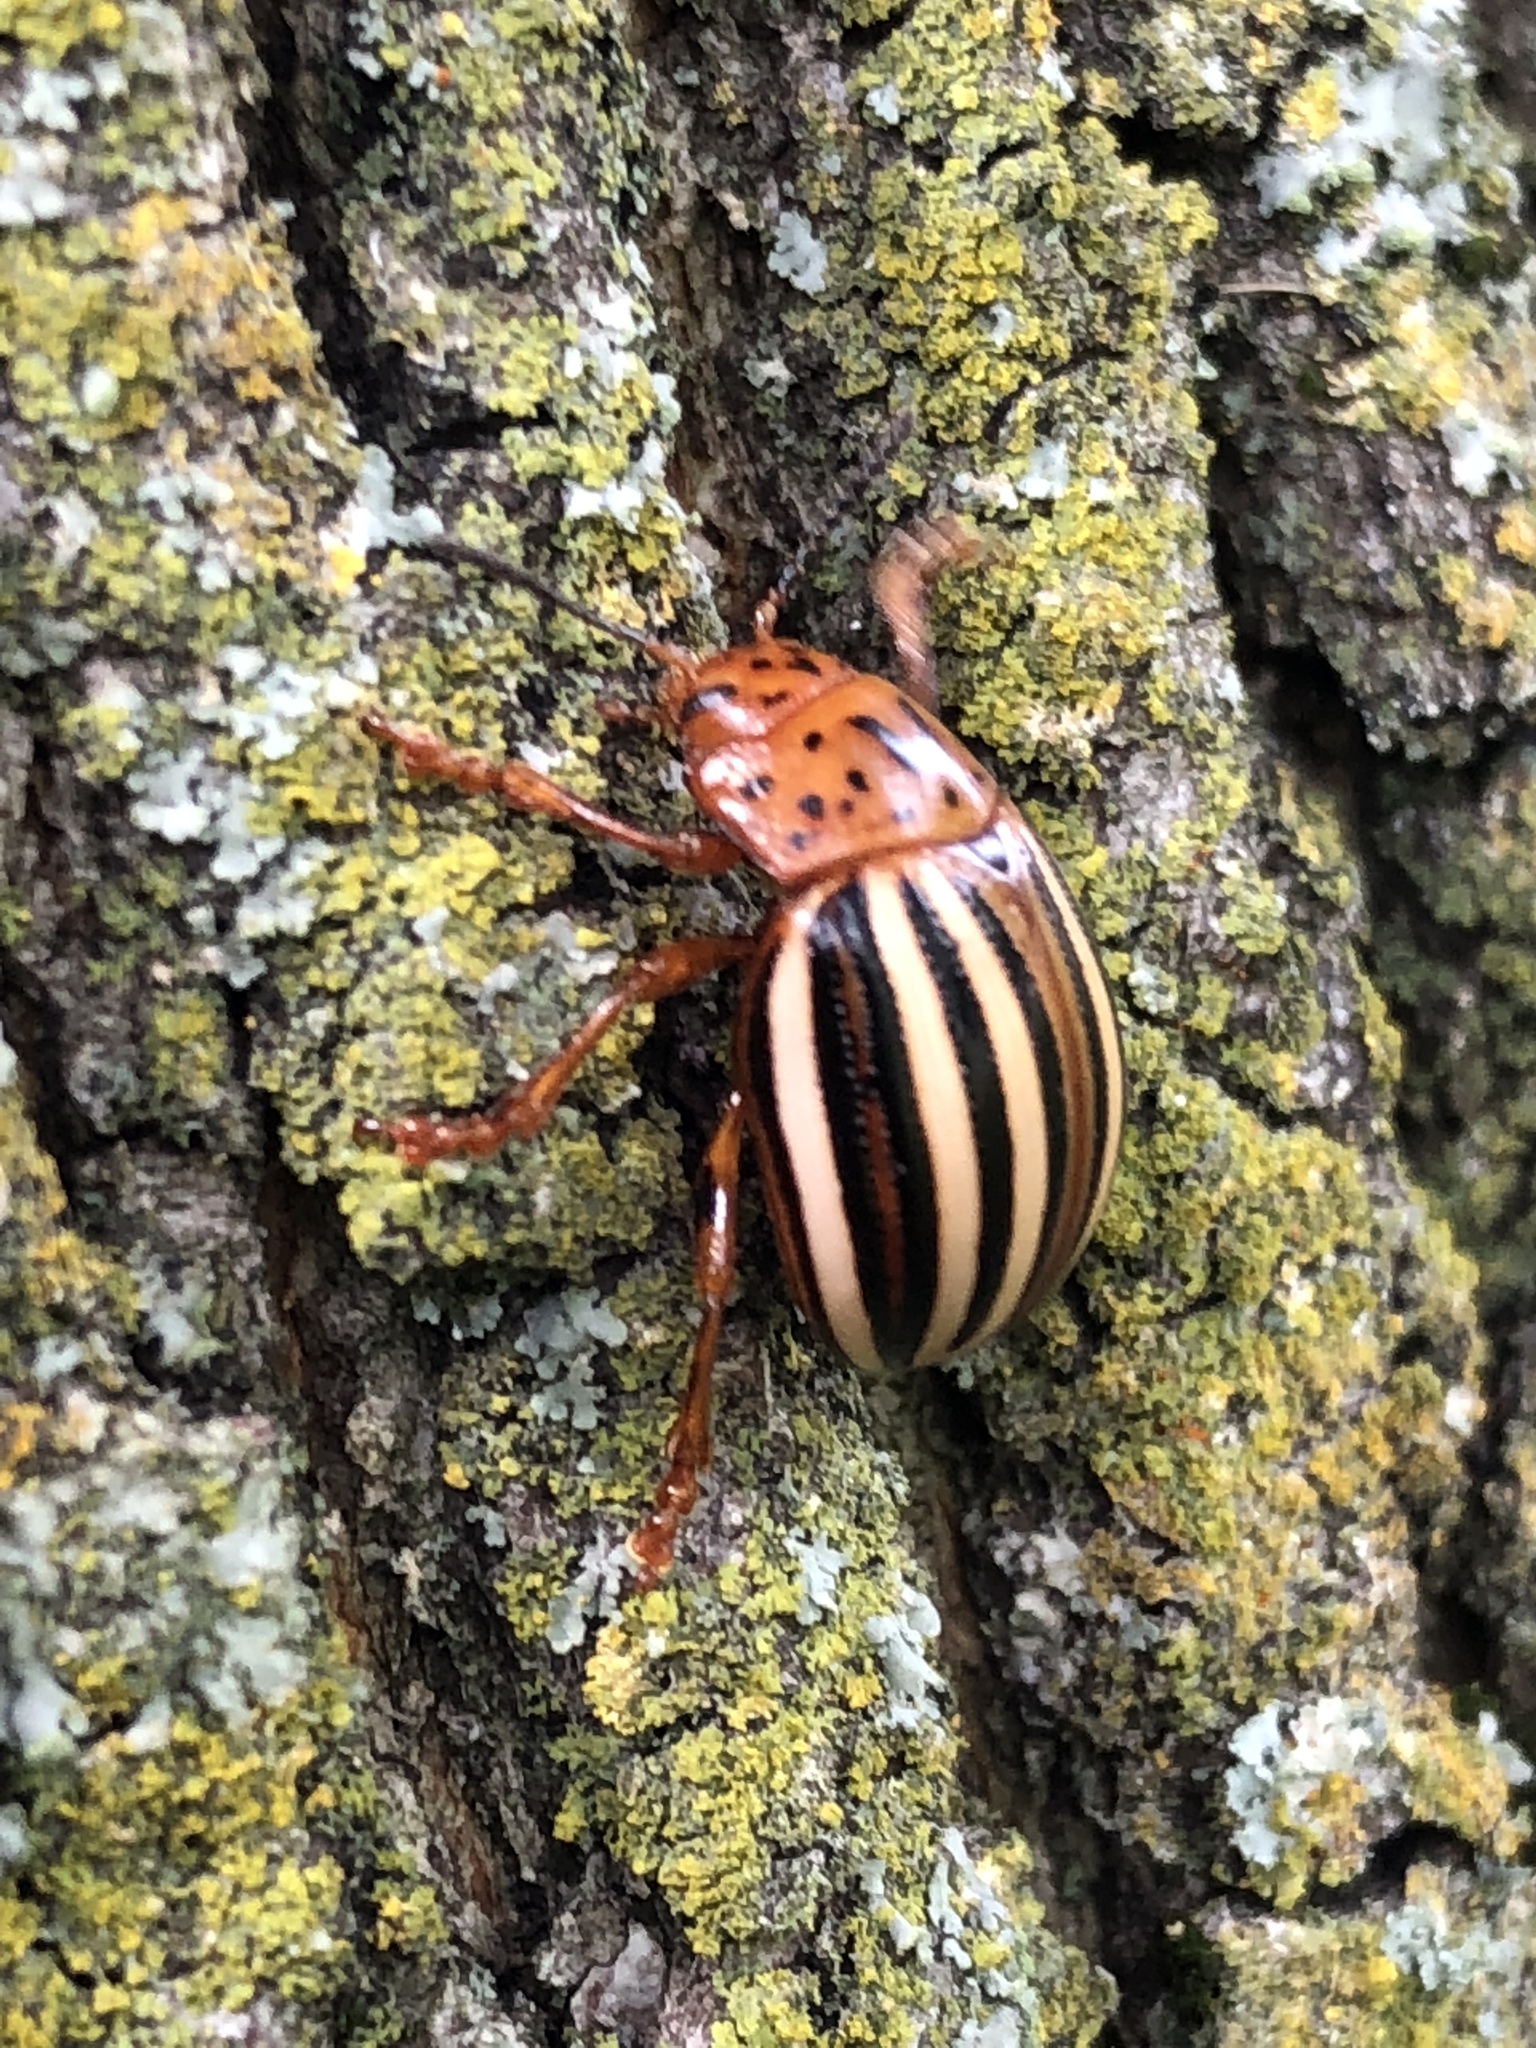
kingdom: Animalia
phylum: Arthropoda
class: Insecta
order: Coleoptera
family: Chrysomelidae
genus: Leptinotarsa
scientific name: Leptinotarsa juncta
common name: False potato beetle
